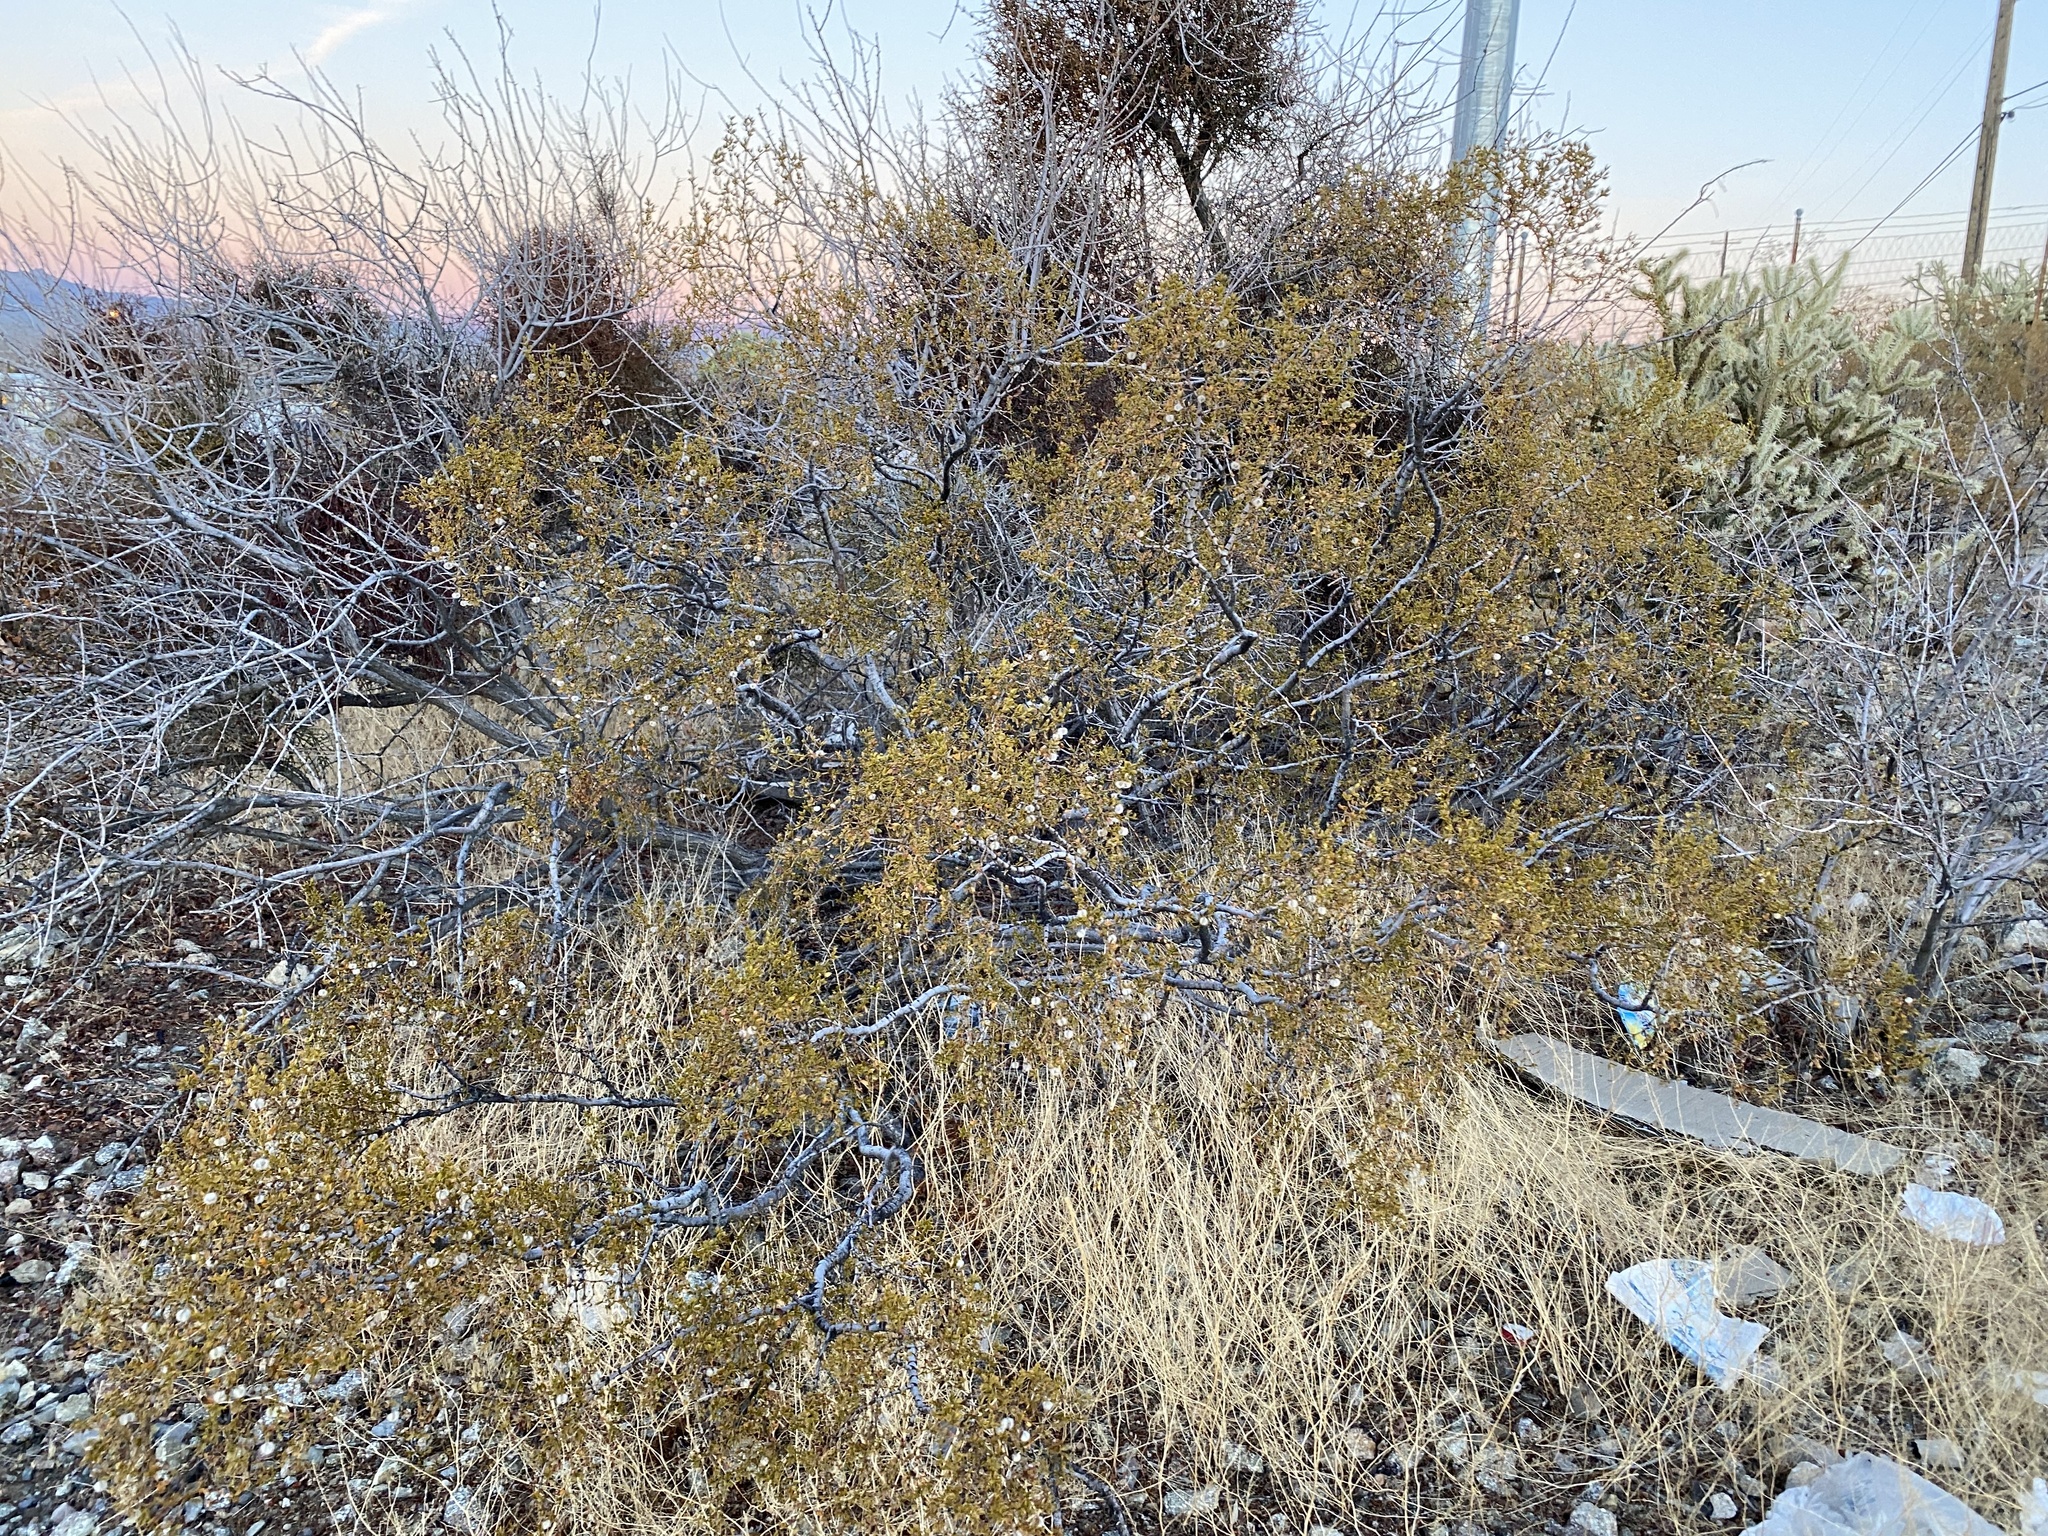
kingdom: Plantae
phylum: Tracheophyta
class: Magnoliopsida
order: Zygophyllales
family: Zygophyllaceae
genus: Larrea
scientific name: Larrea tridentata
